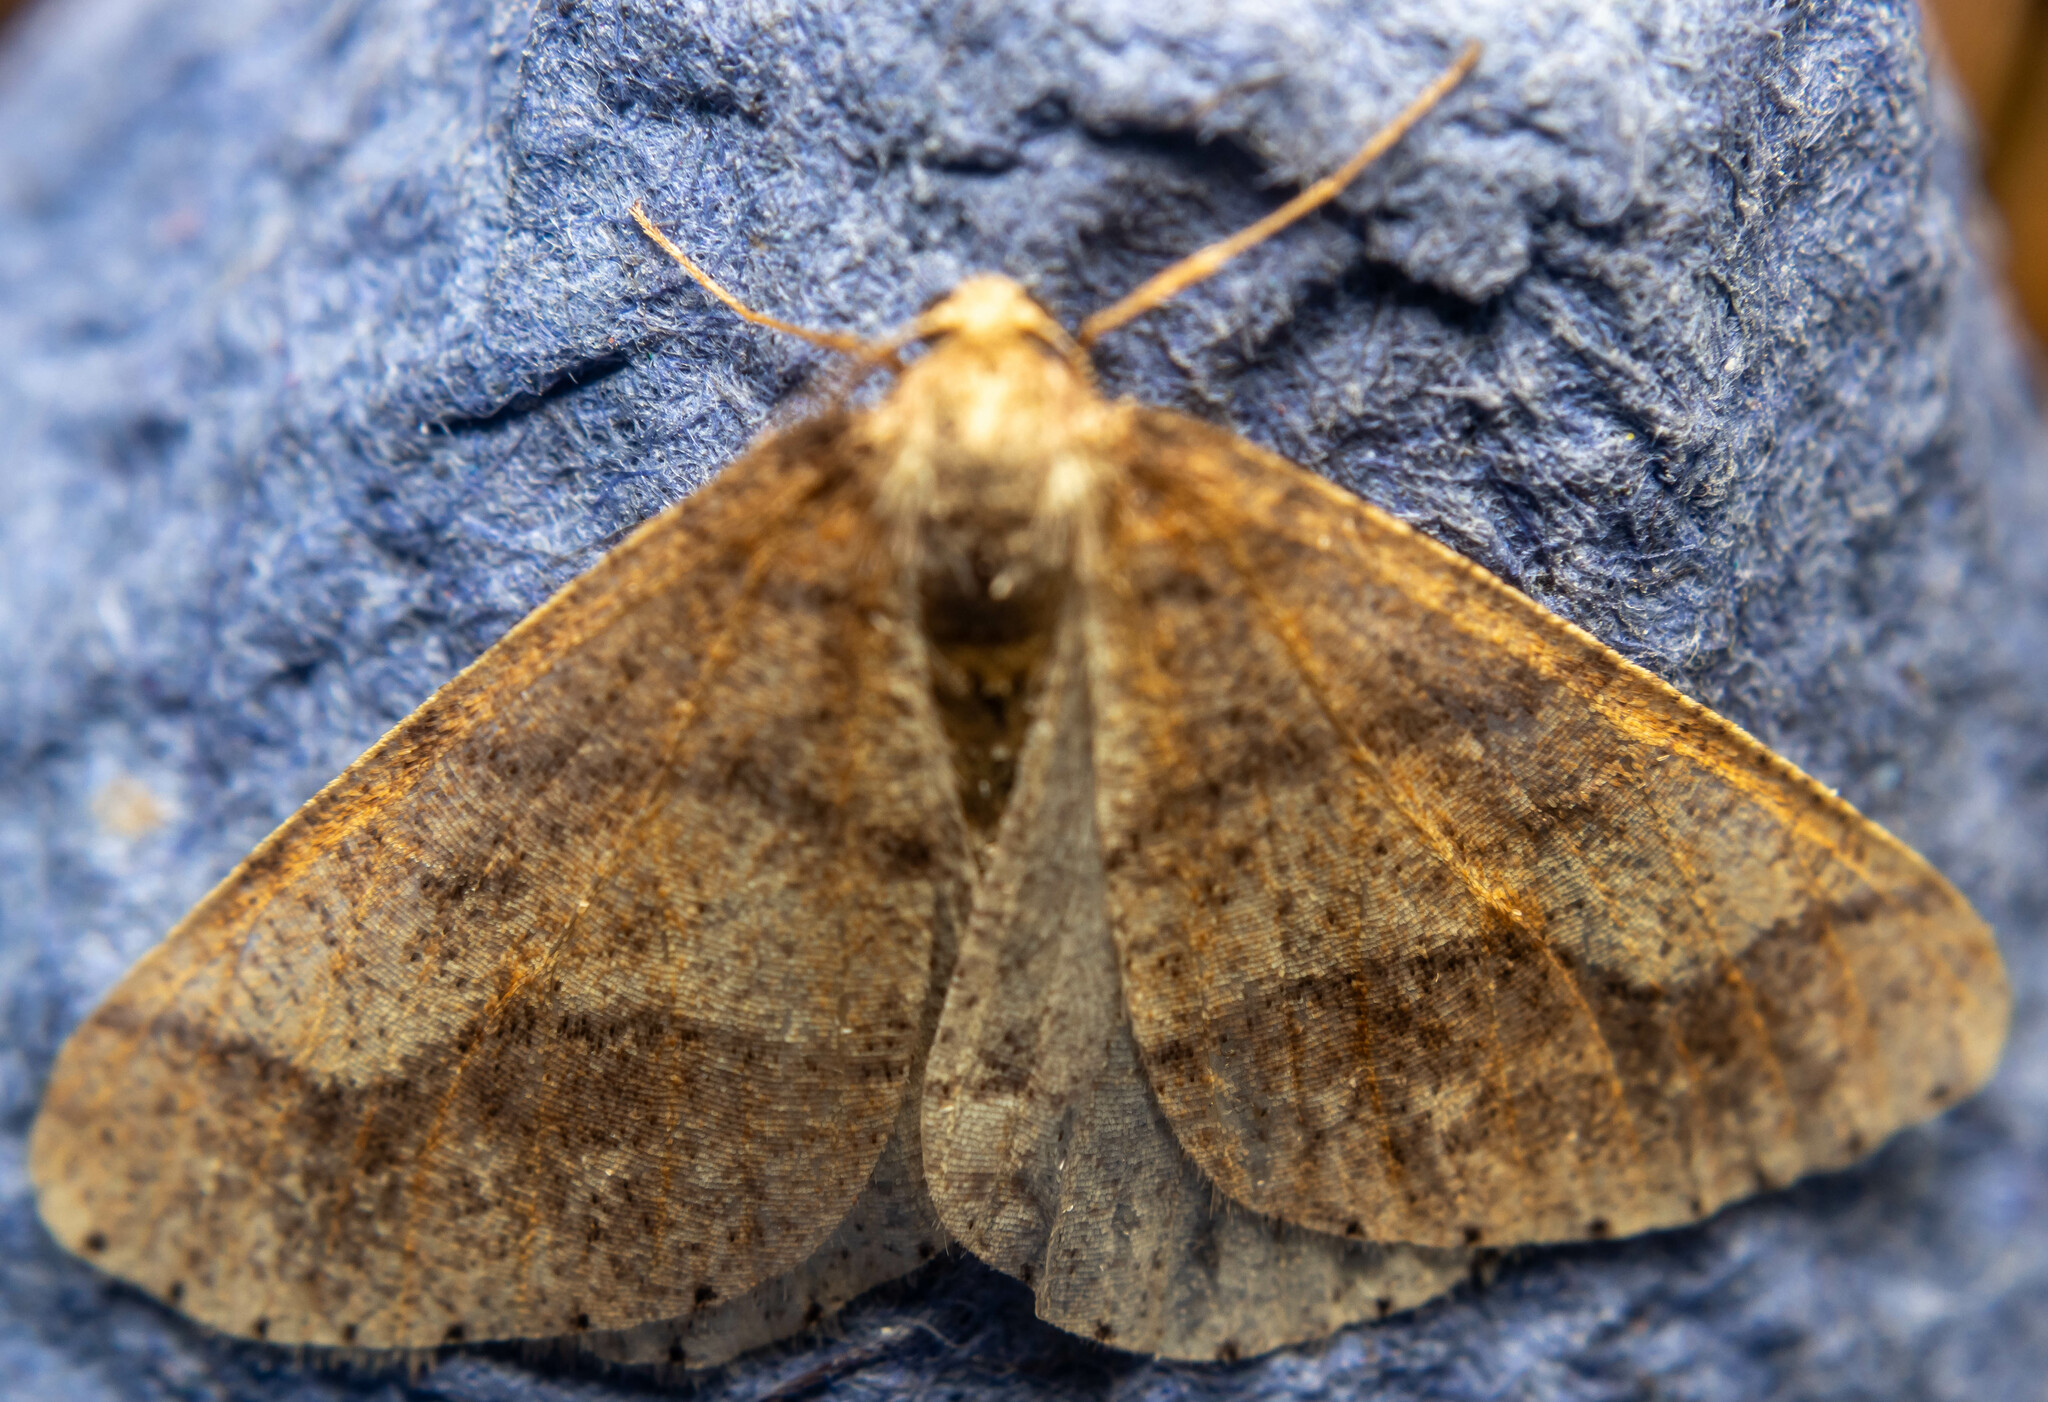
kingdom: Animalia
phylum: Arthropoda
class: Insecta
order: Lepidoptera
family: Geometridae
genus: Agriopis
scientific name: Agriopis marginaria
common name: Dotted border
